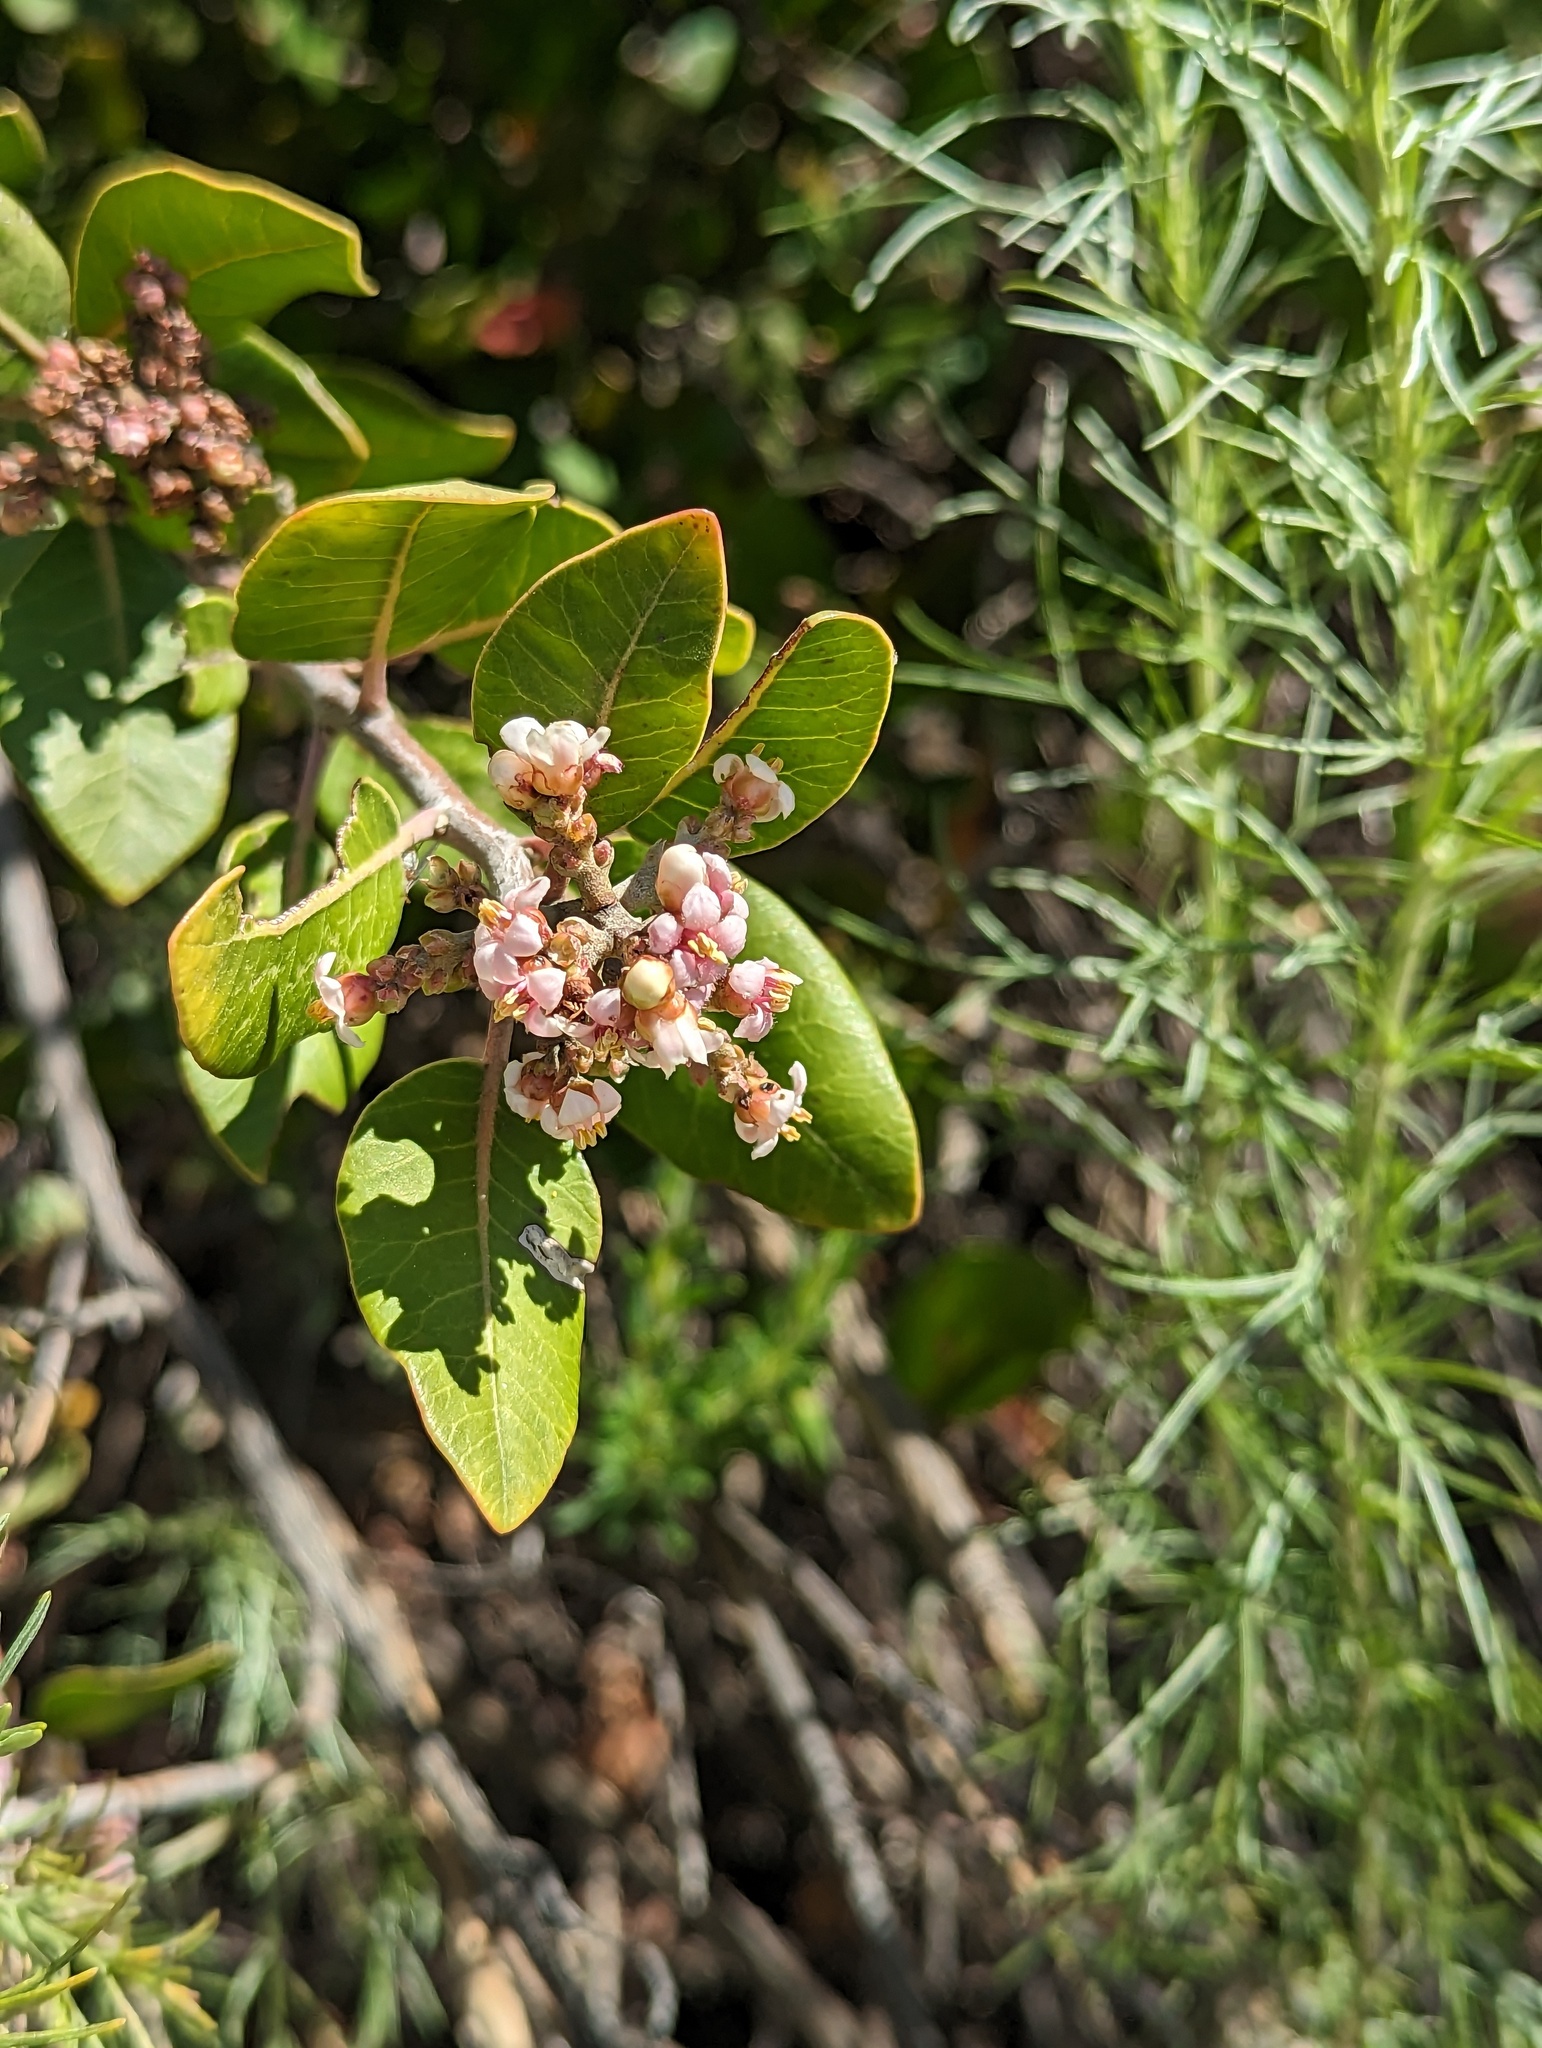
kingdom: Plantae
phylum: Tracheophyta
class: Magnoliopsida
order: Sapindales
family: Anacardiaceae
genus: Rhus
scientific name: Rhus ovata
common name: Sugar sumac
